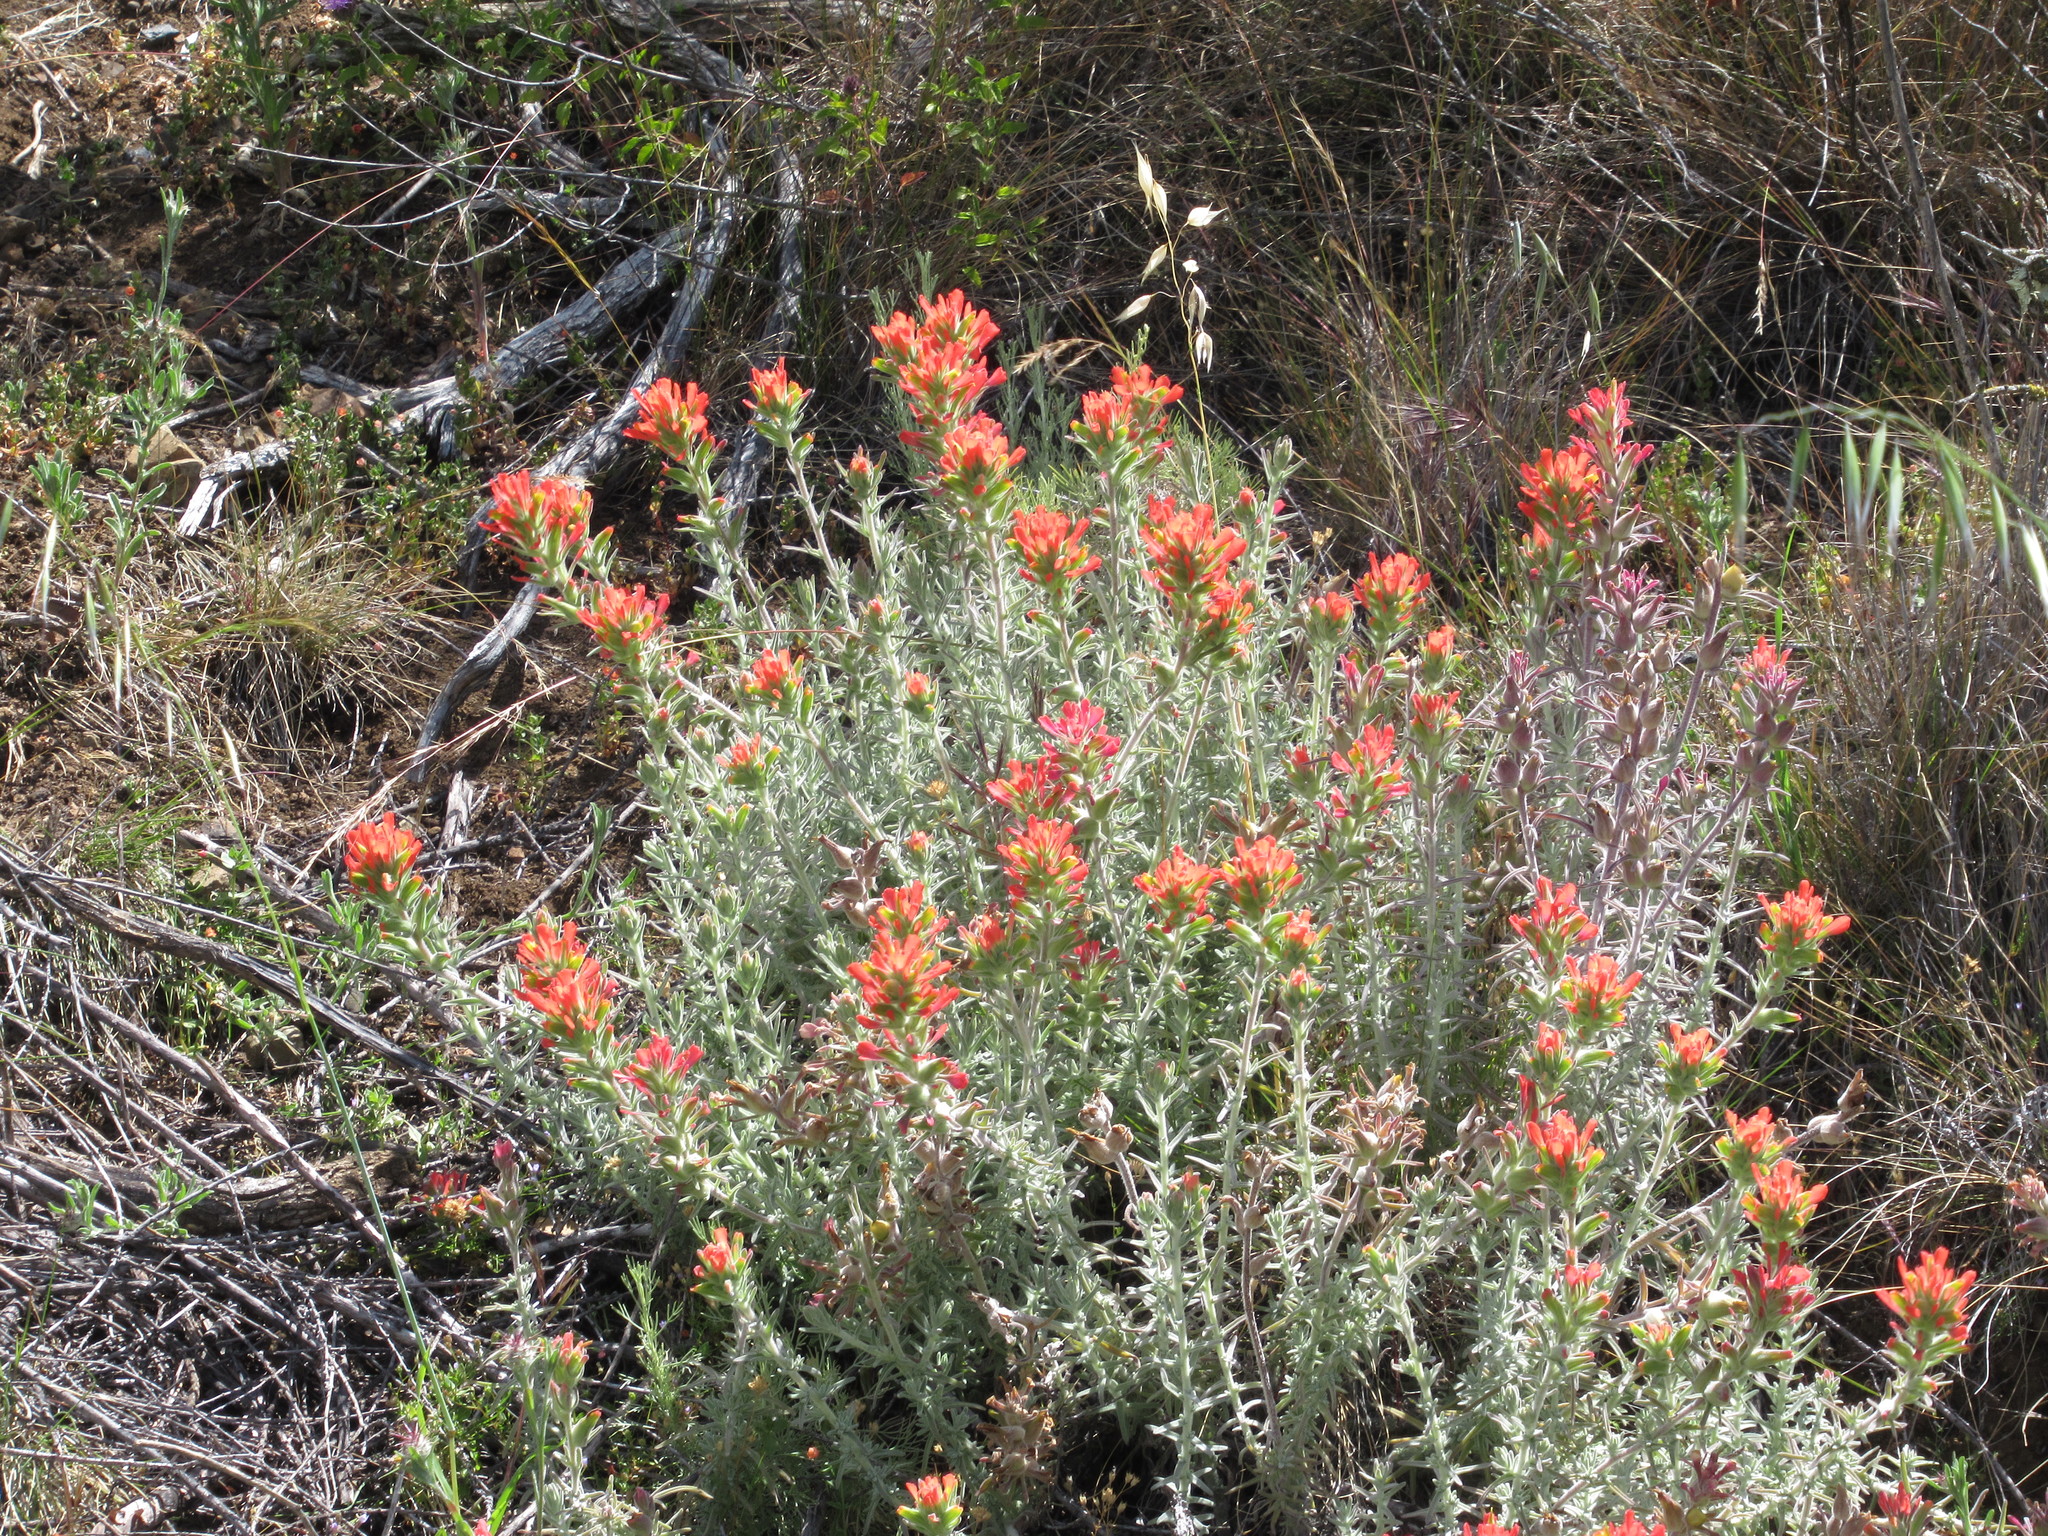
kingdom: Plantae
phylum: Tracheophyta
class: Magnoliopsida
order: Lamiales
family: Orobanchaceae
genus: Castilleja
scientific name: Castilleja foliolosa
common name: Woolly indian paintbrush
